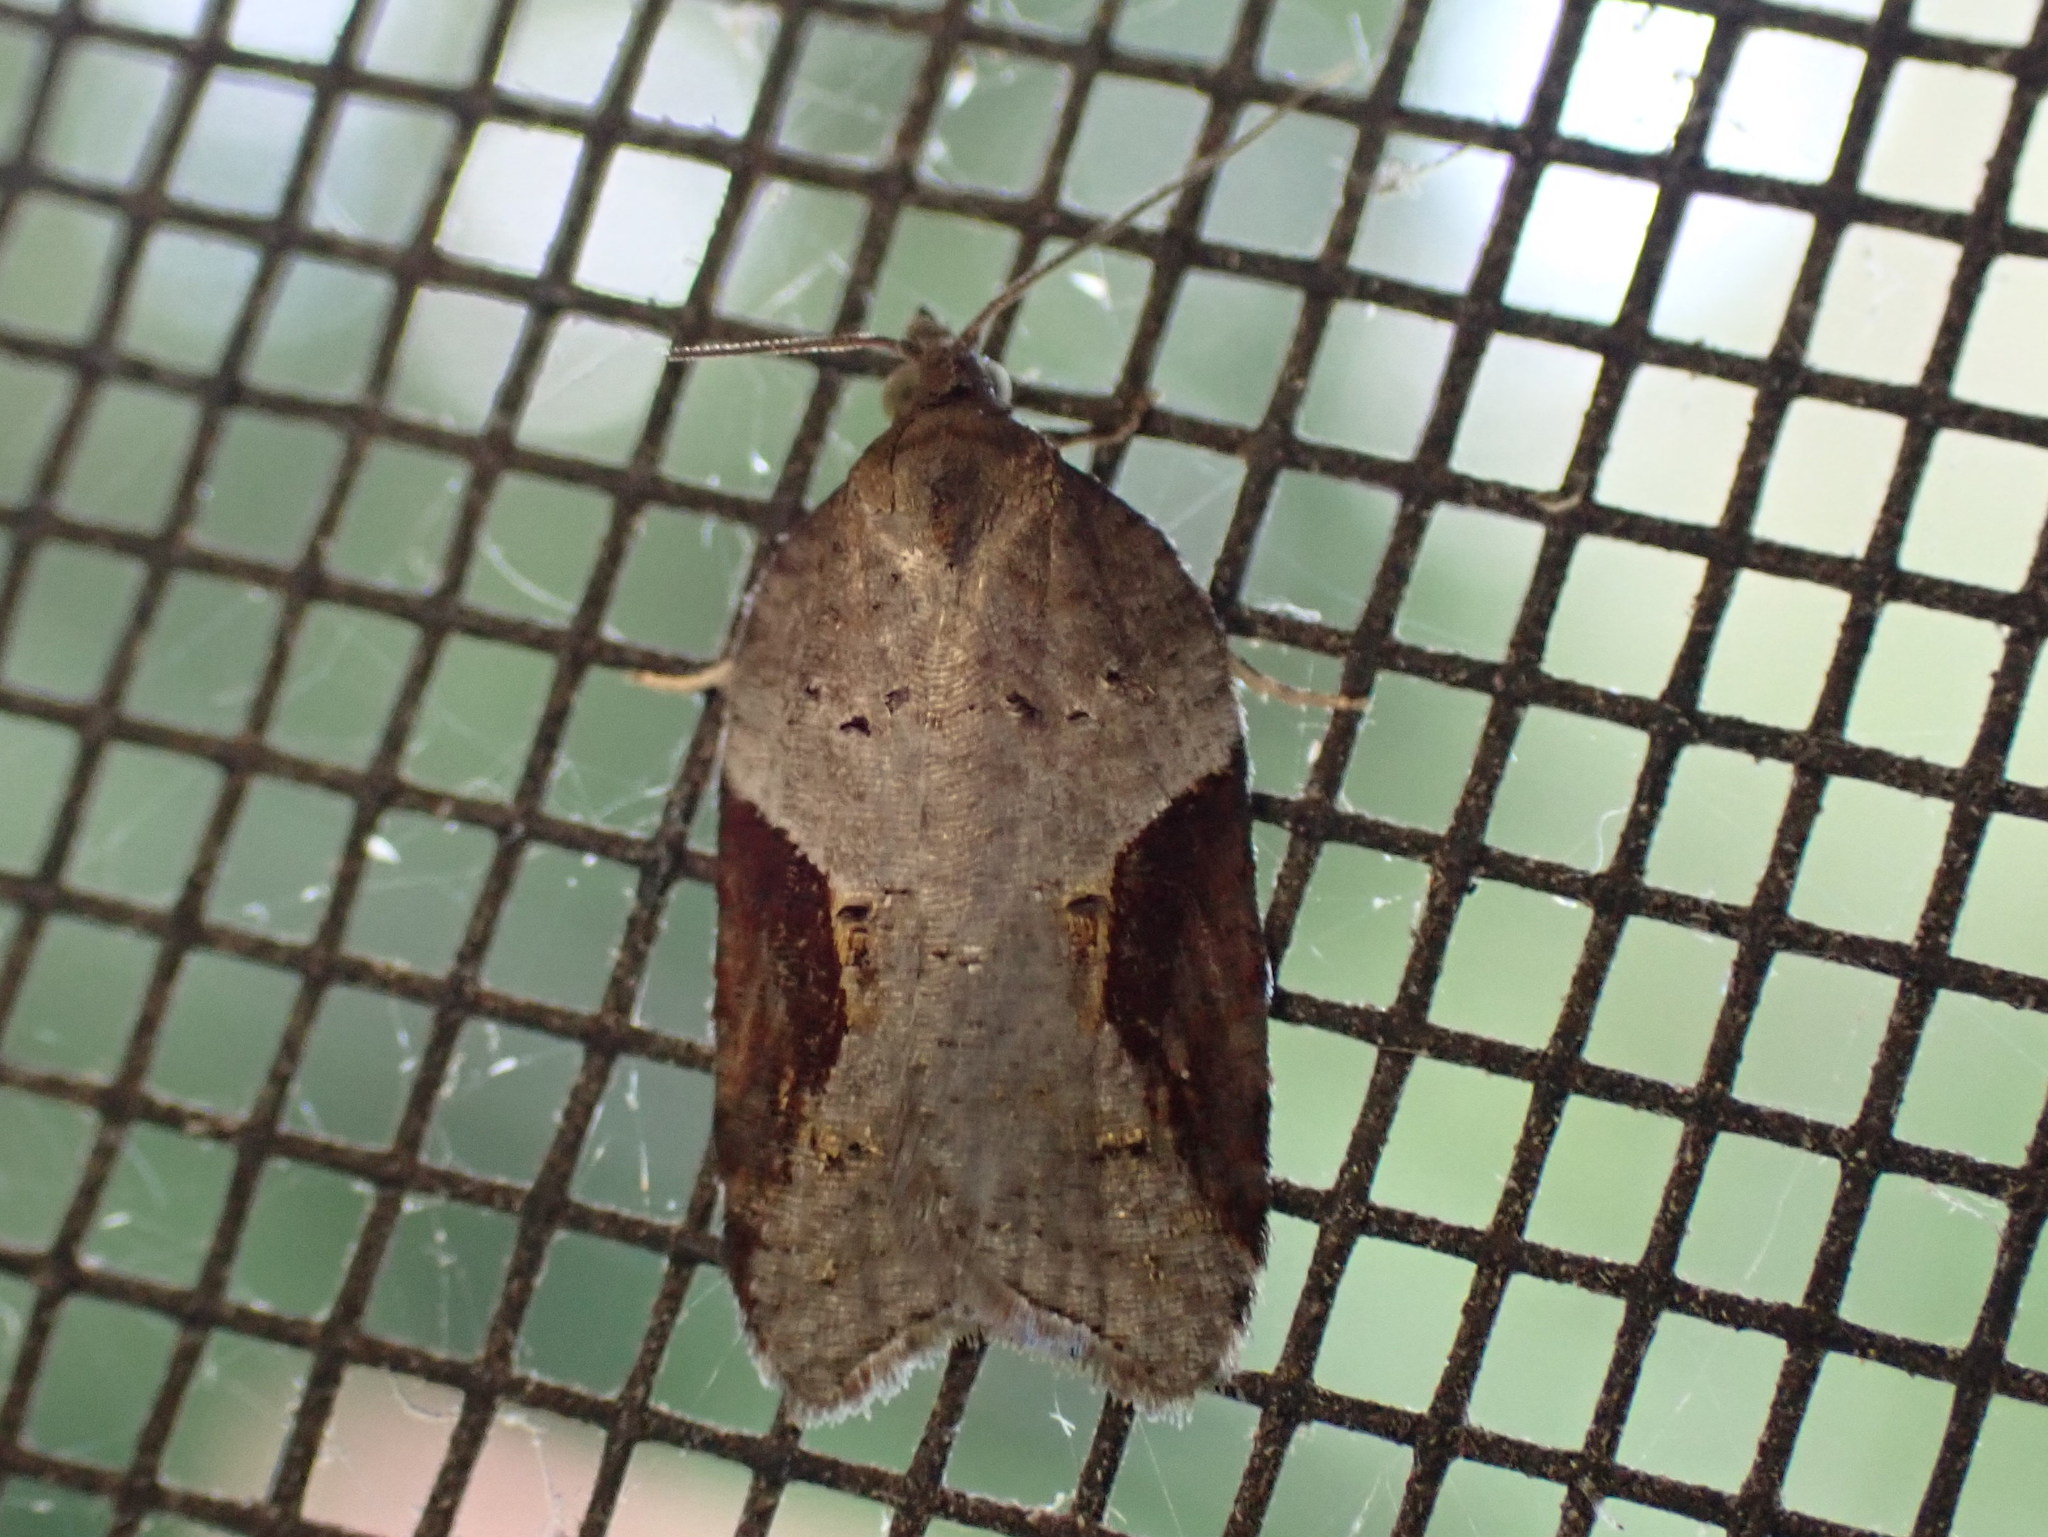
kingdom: Animalia
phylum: Arthropoda
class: Insecta
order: Lepidoptera
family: Tortricidae
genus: Acleris
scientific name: Acleris macdunnoughi
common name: Macdunnough's acleris
